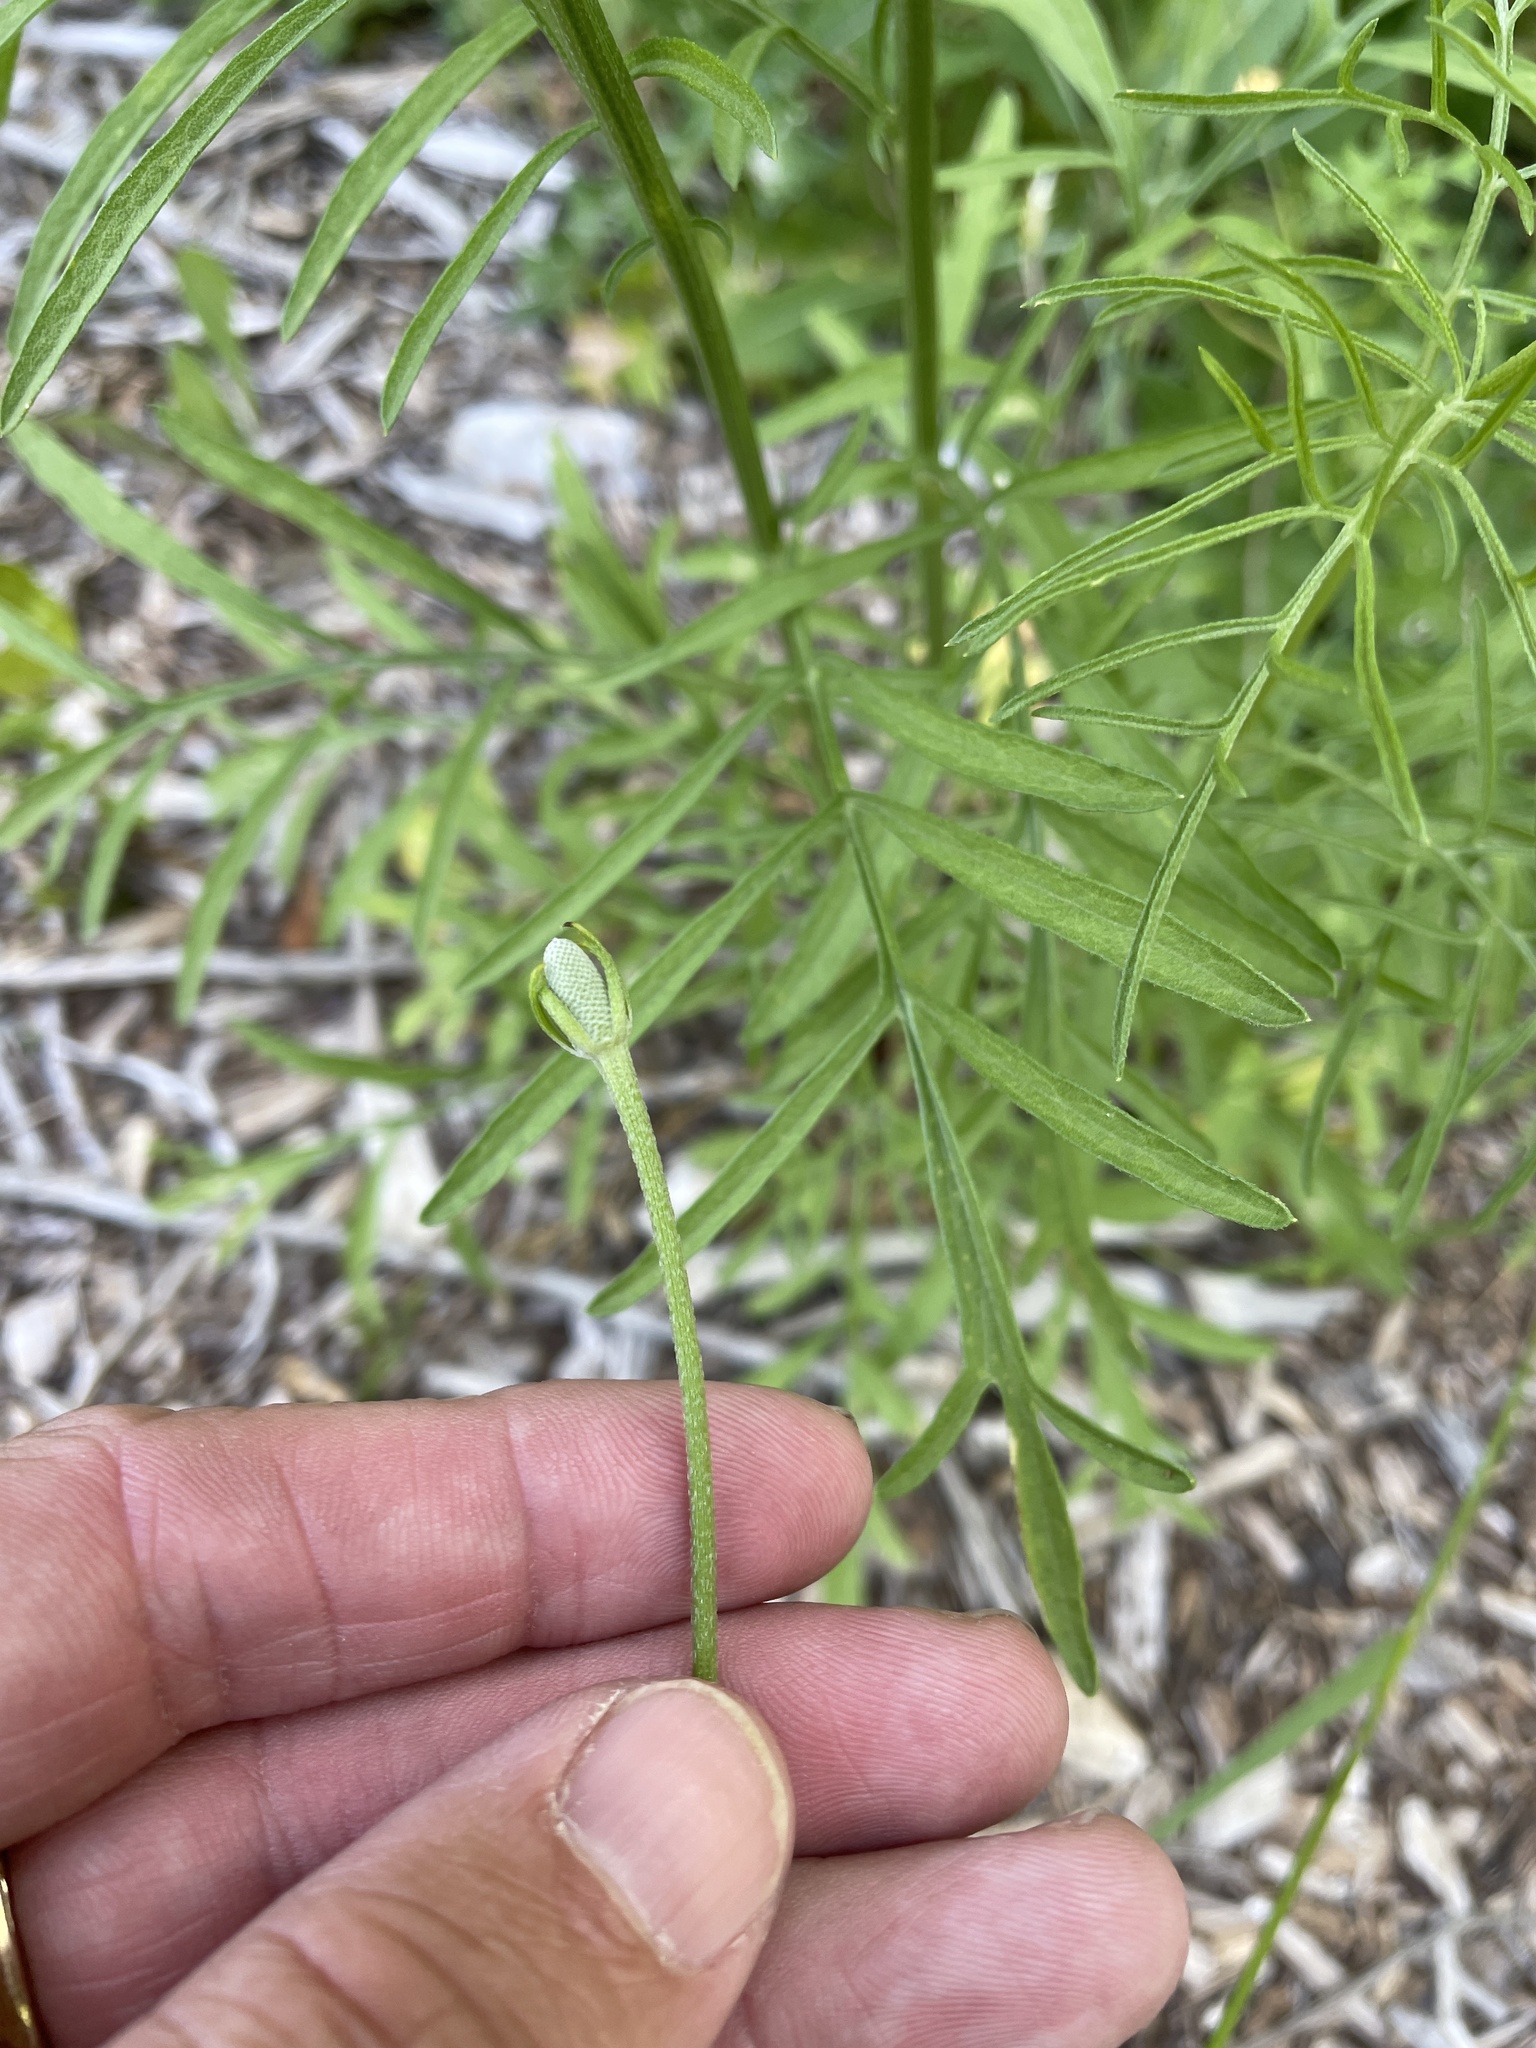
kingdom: Plantae
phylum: Tracheophyta
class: Magnoliopsida
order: Asterales
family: Asteraceae
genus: Ratibida
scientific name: Ratibida columnifera
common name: Prairie coneflower
